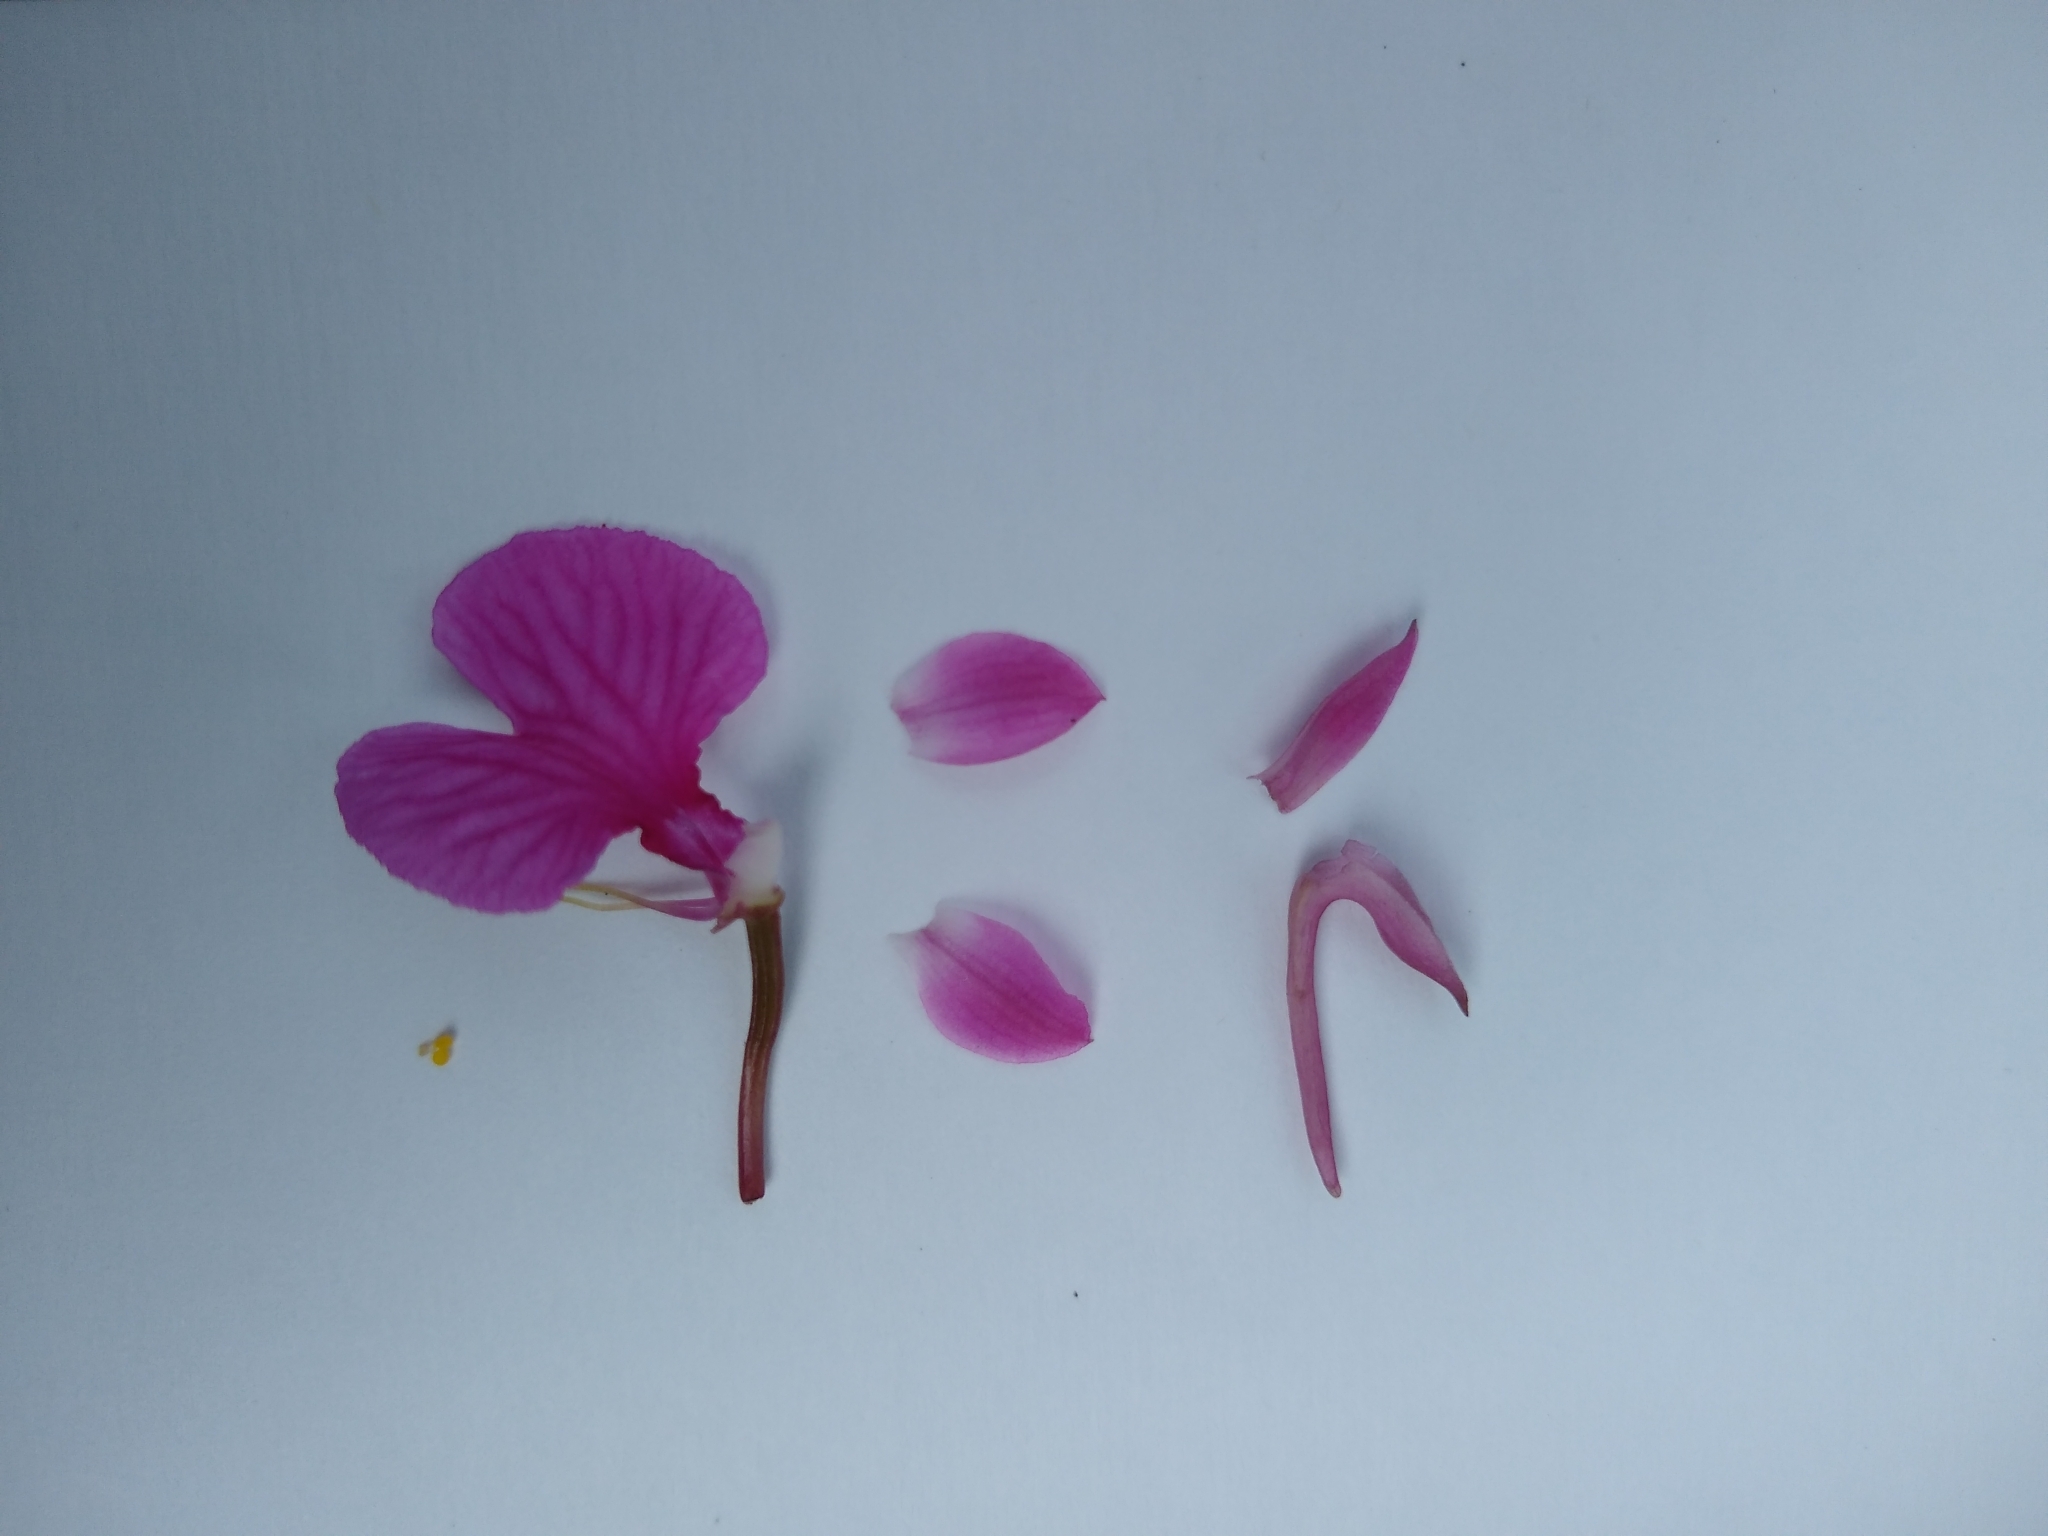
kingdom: Plantae
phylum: Tracheophyta
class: Liliopsida
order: Asparagales
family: Orchidaceae
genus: Comparettia
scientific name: Comparettia falcata
